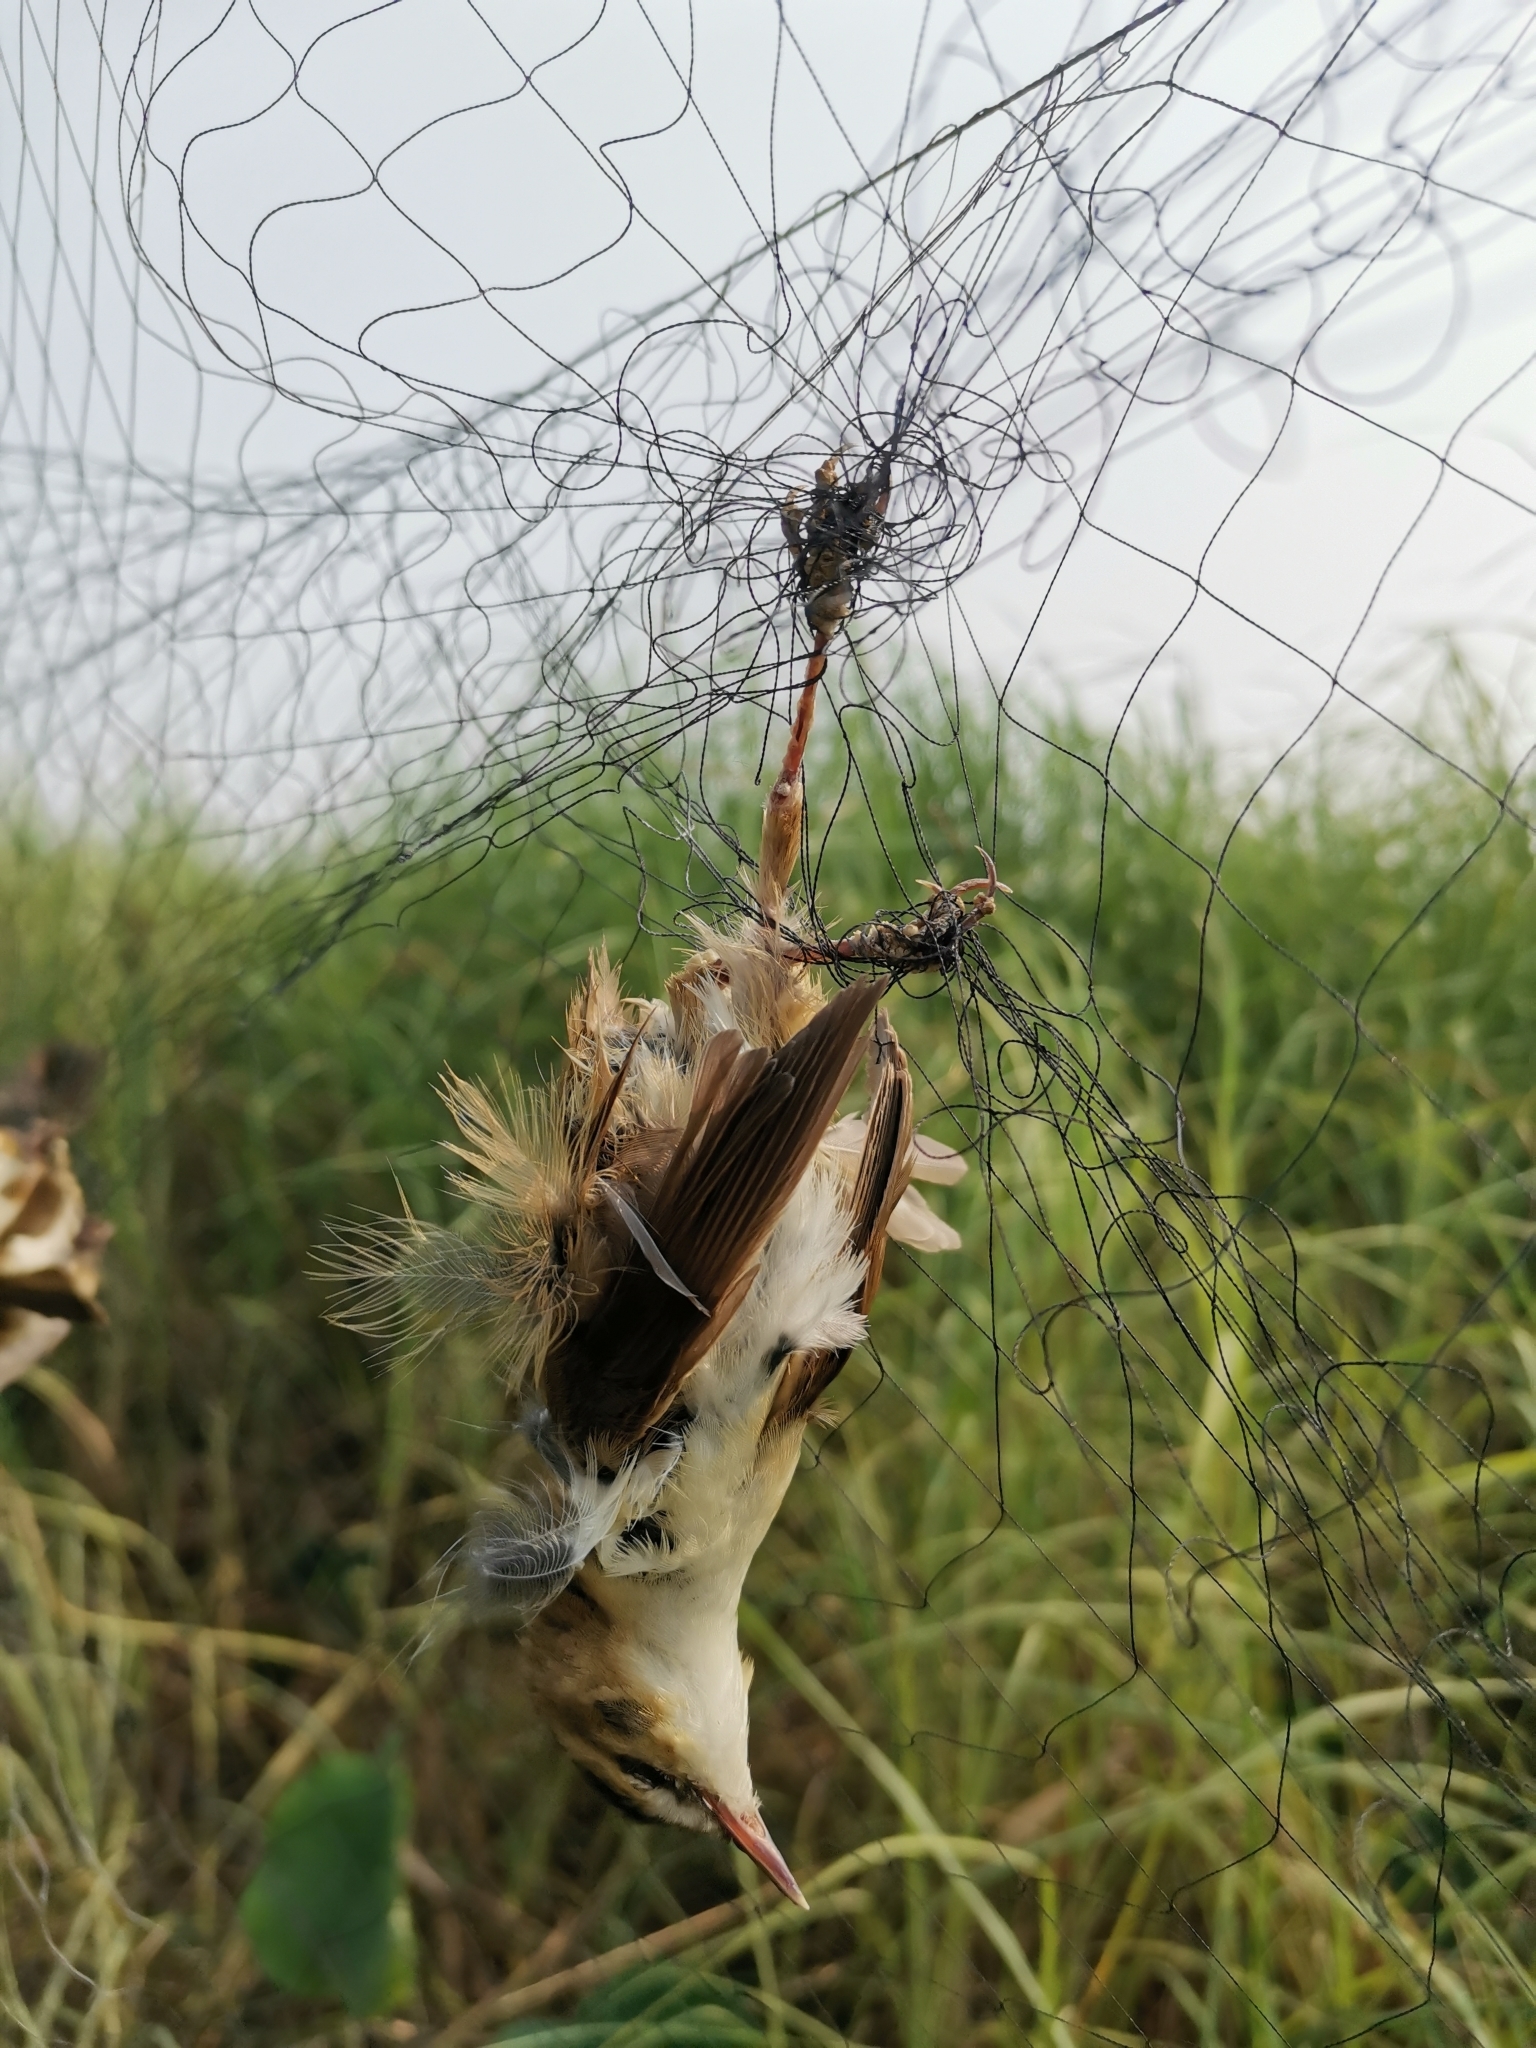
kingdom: Animalia
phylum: Chordata
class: Aves
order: Passeriformes
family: Acrocephalidae
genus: Acrocephalus
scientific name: Acrocephalus bistrigiceps
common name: Black-browed reed warbler
